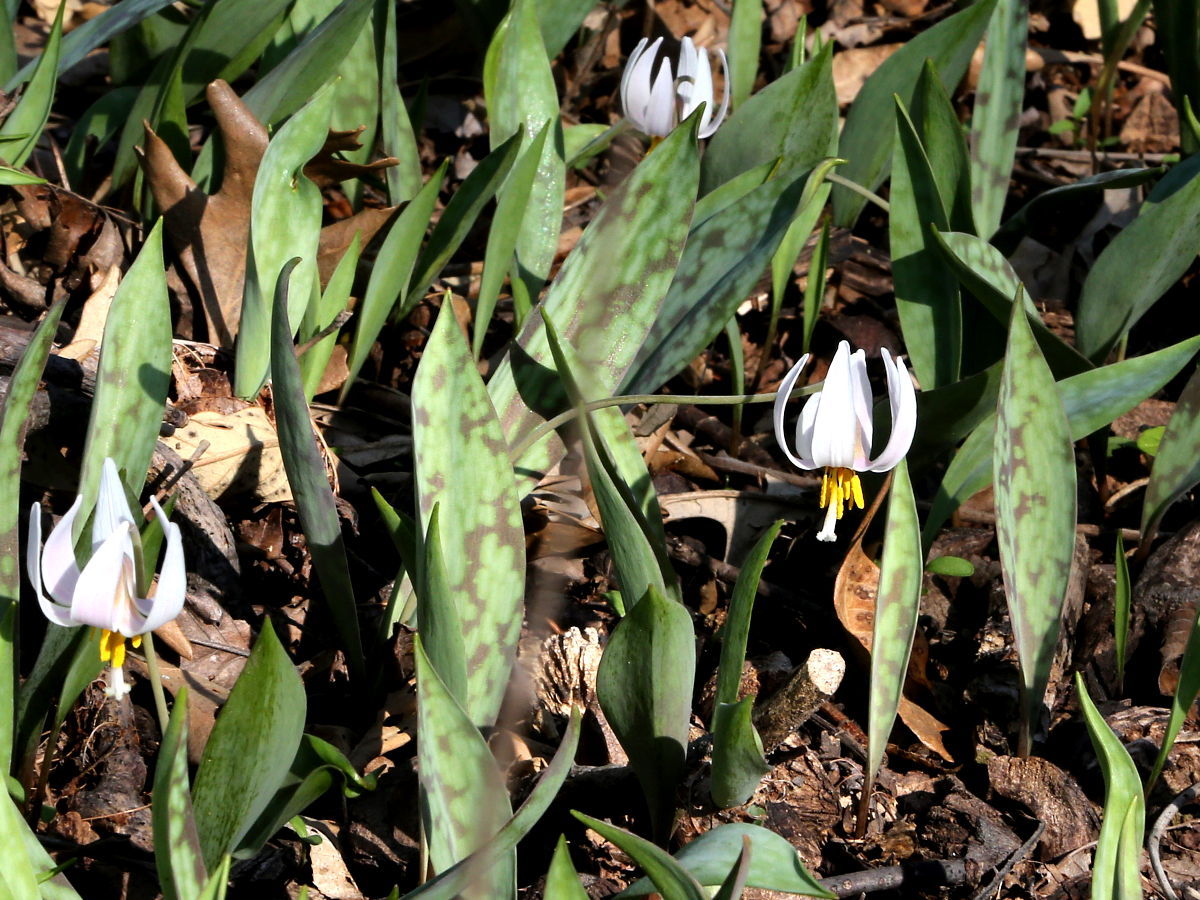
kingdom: Plantae
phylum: Tracheophyta
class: Liliopsida
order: Liliales
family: Liliaceae
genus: Erythronium
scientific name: Erythronium albidum
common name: White trout-lily
